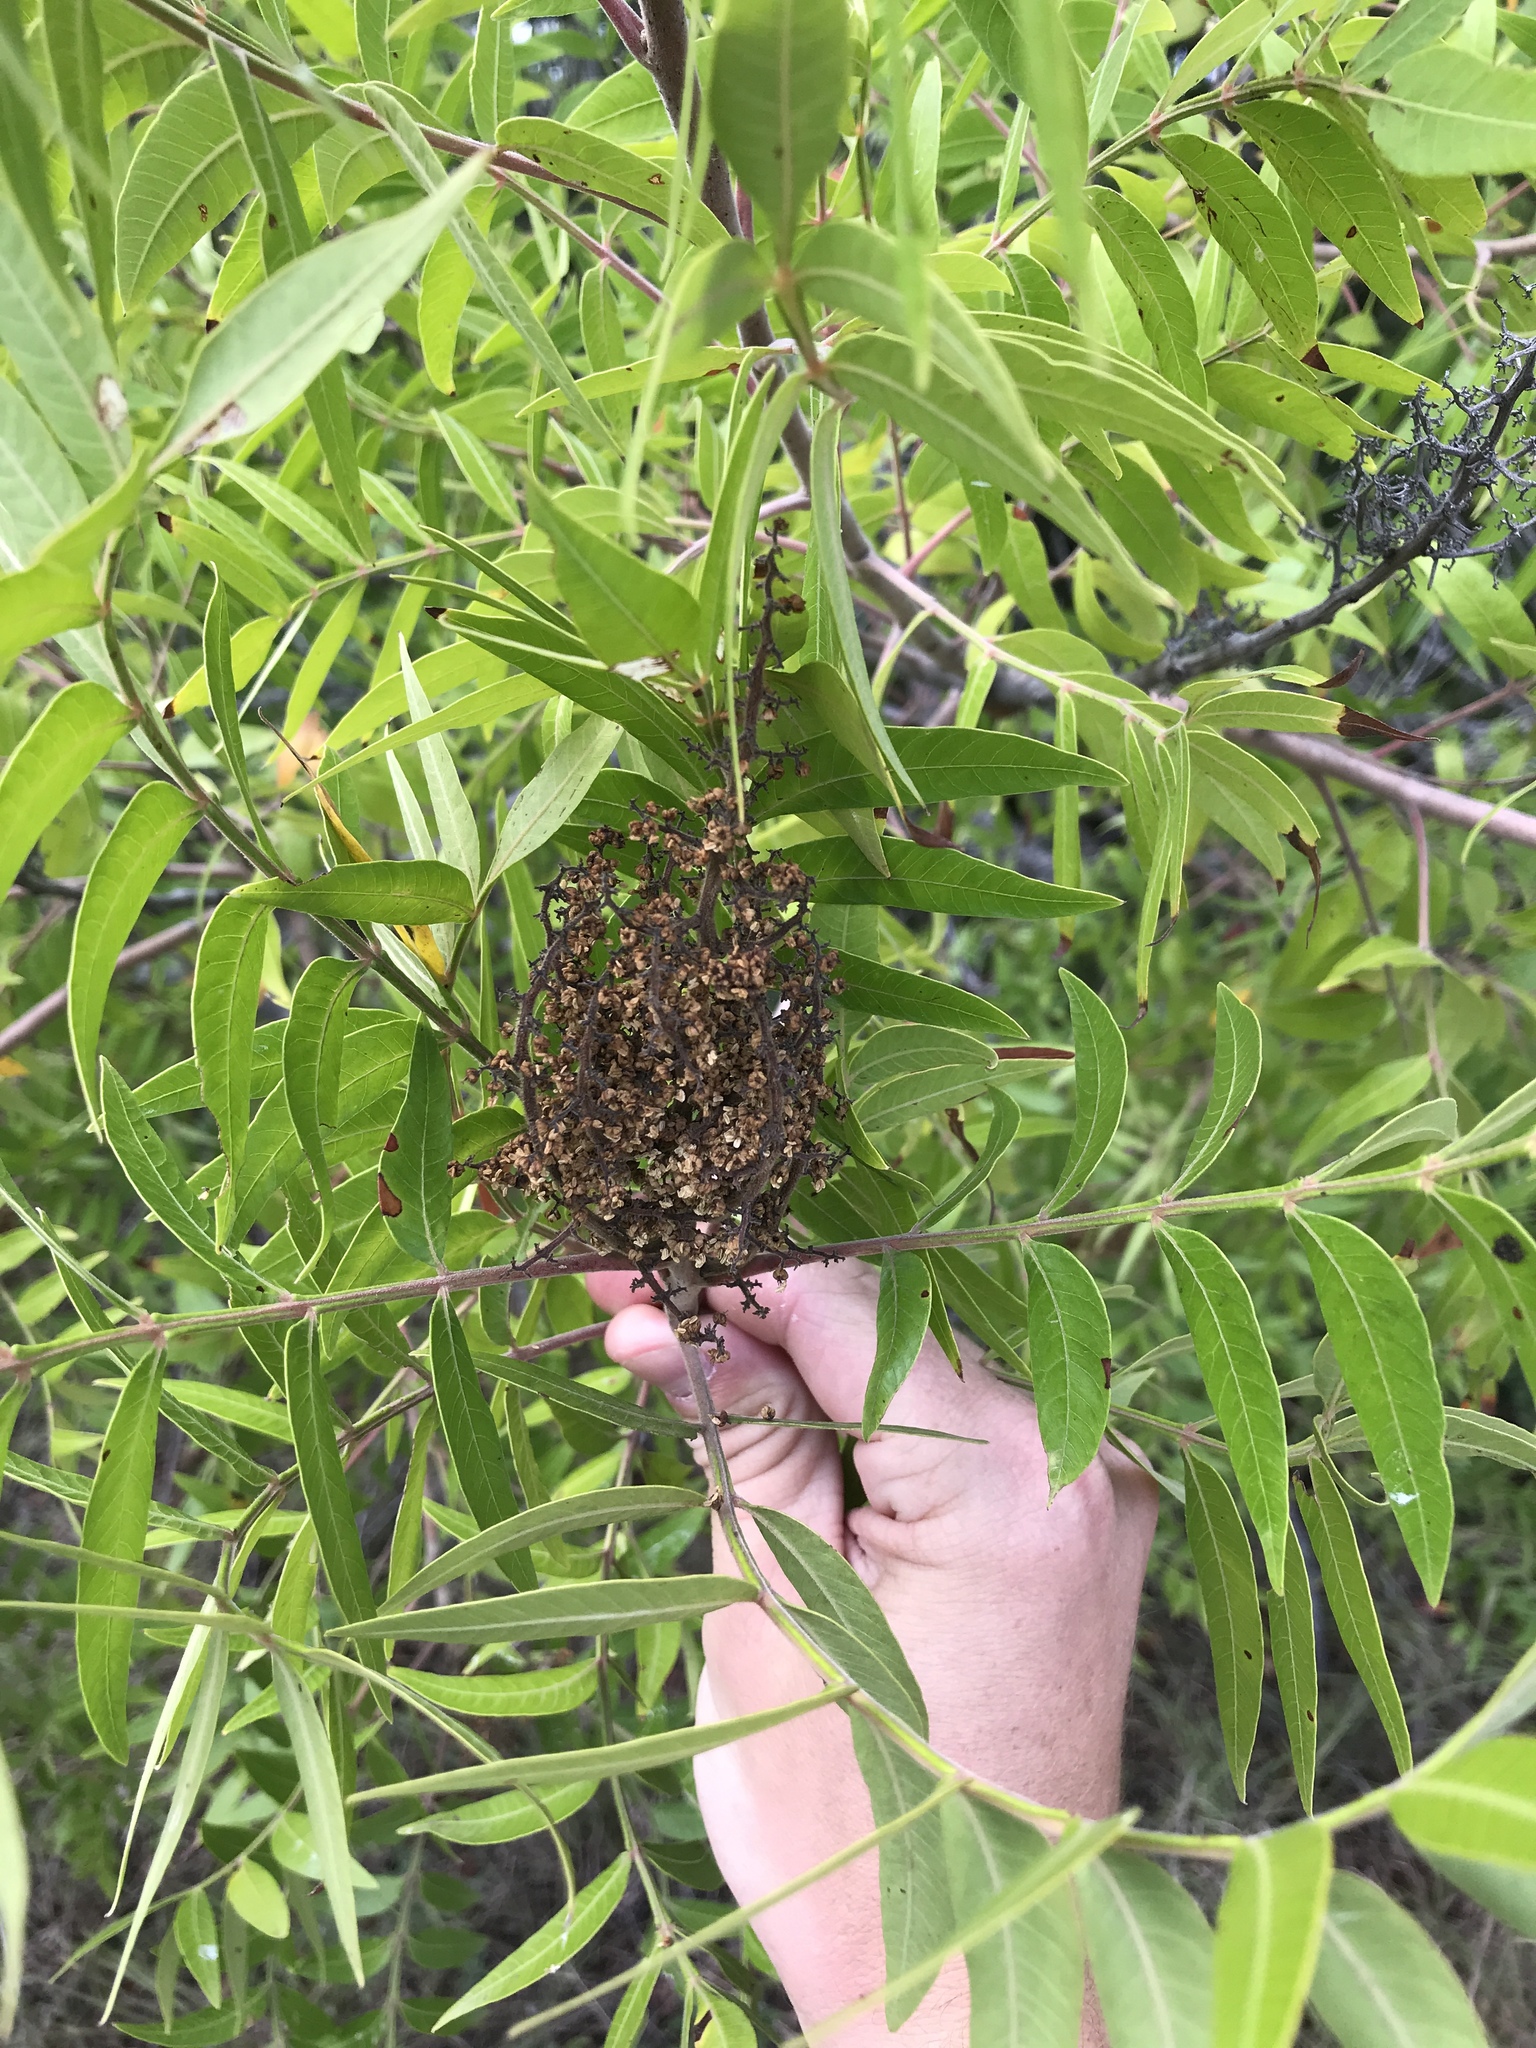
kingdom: Plantae
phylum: Tracheophyta
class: Magnoliopsida
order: Sapindales
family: Anacardiaceae
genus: Rhus
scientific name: Rhus lanceolata
